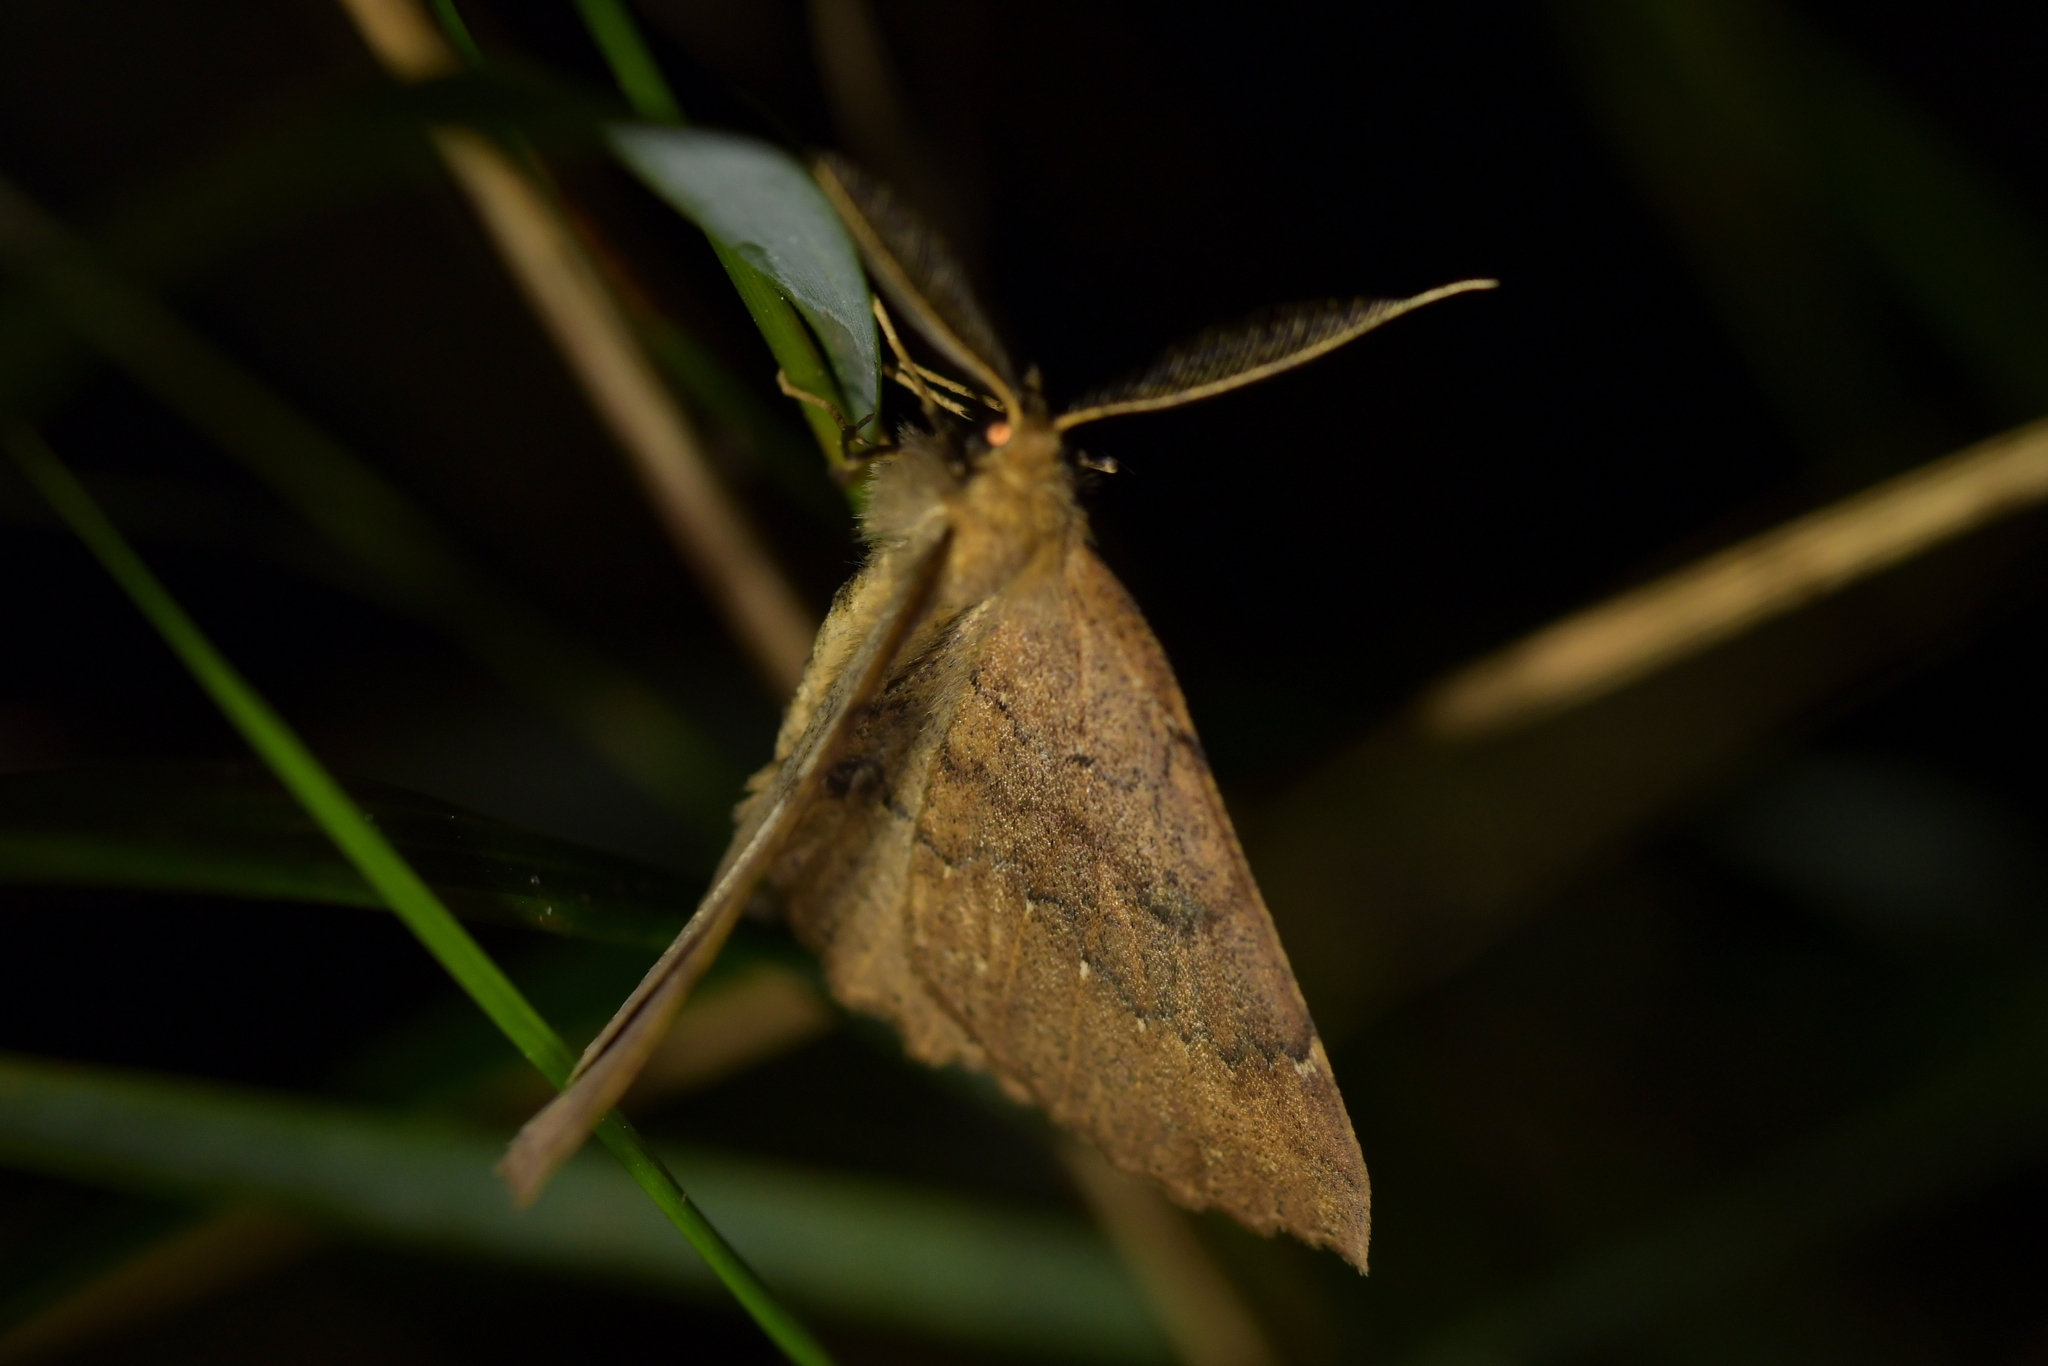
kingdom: Animalia
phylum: Arthropoda
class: Insecta
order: Lepidoptera
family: Geometridae
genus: Cleora
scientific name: Cleora scriptaria
